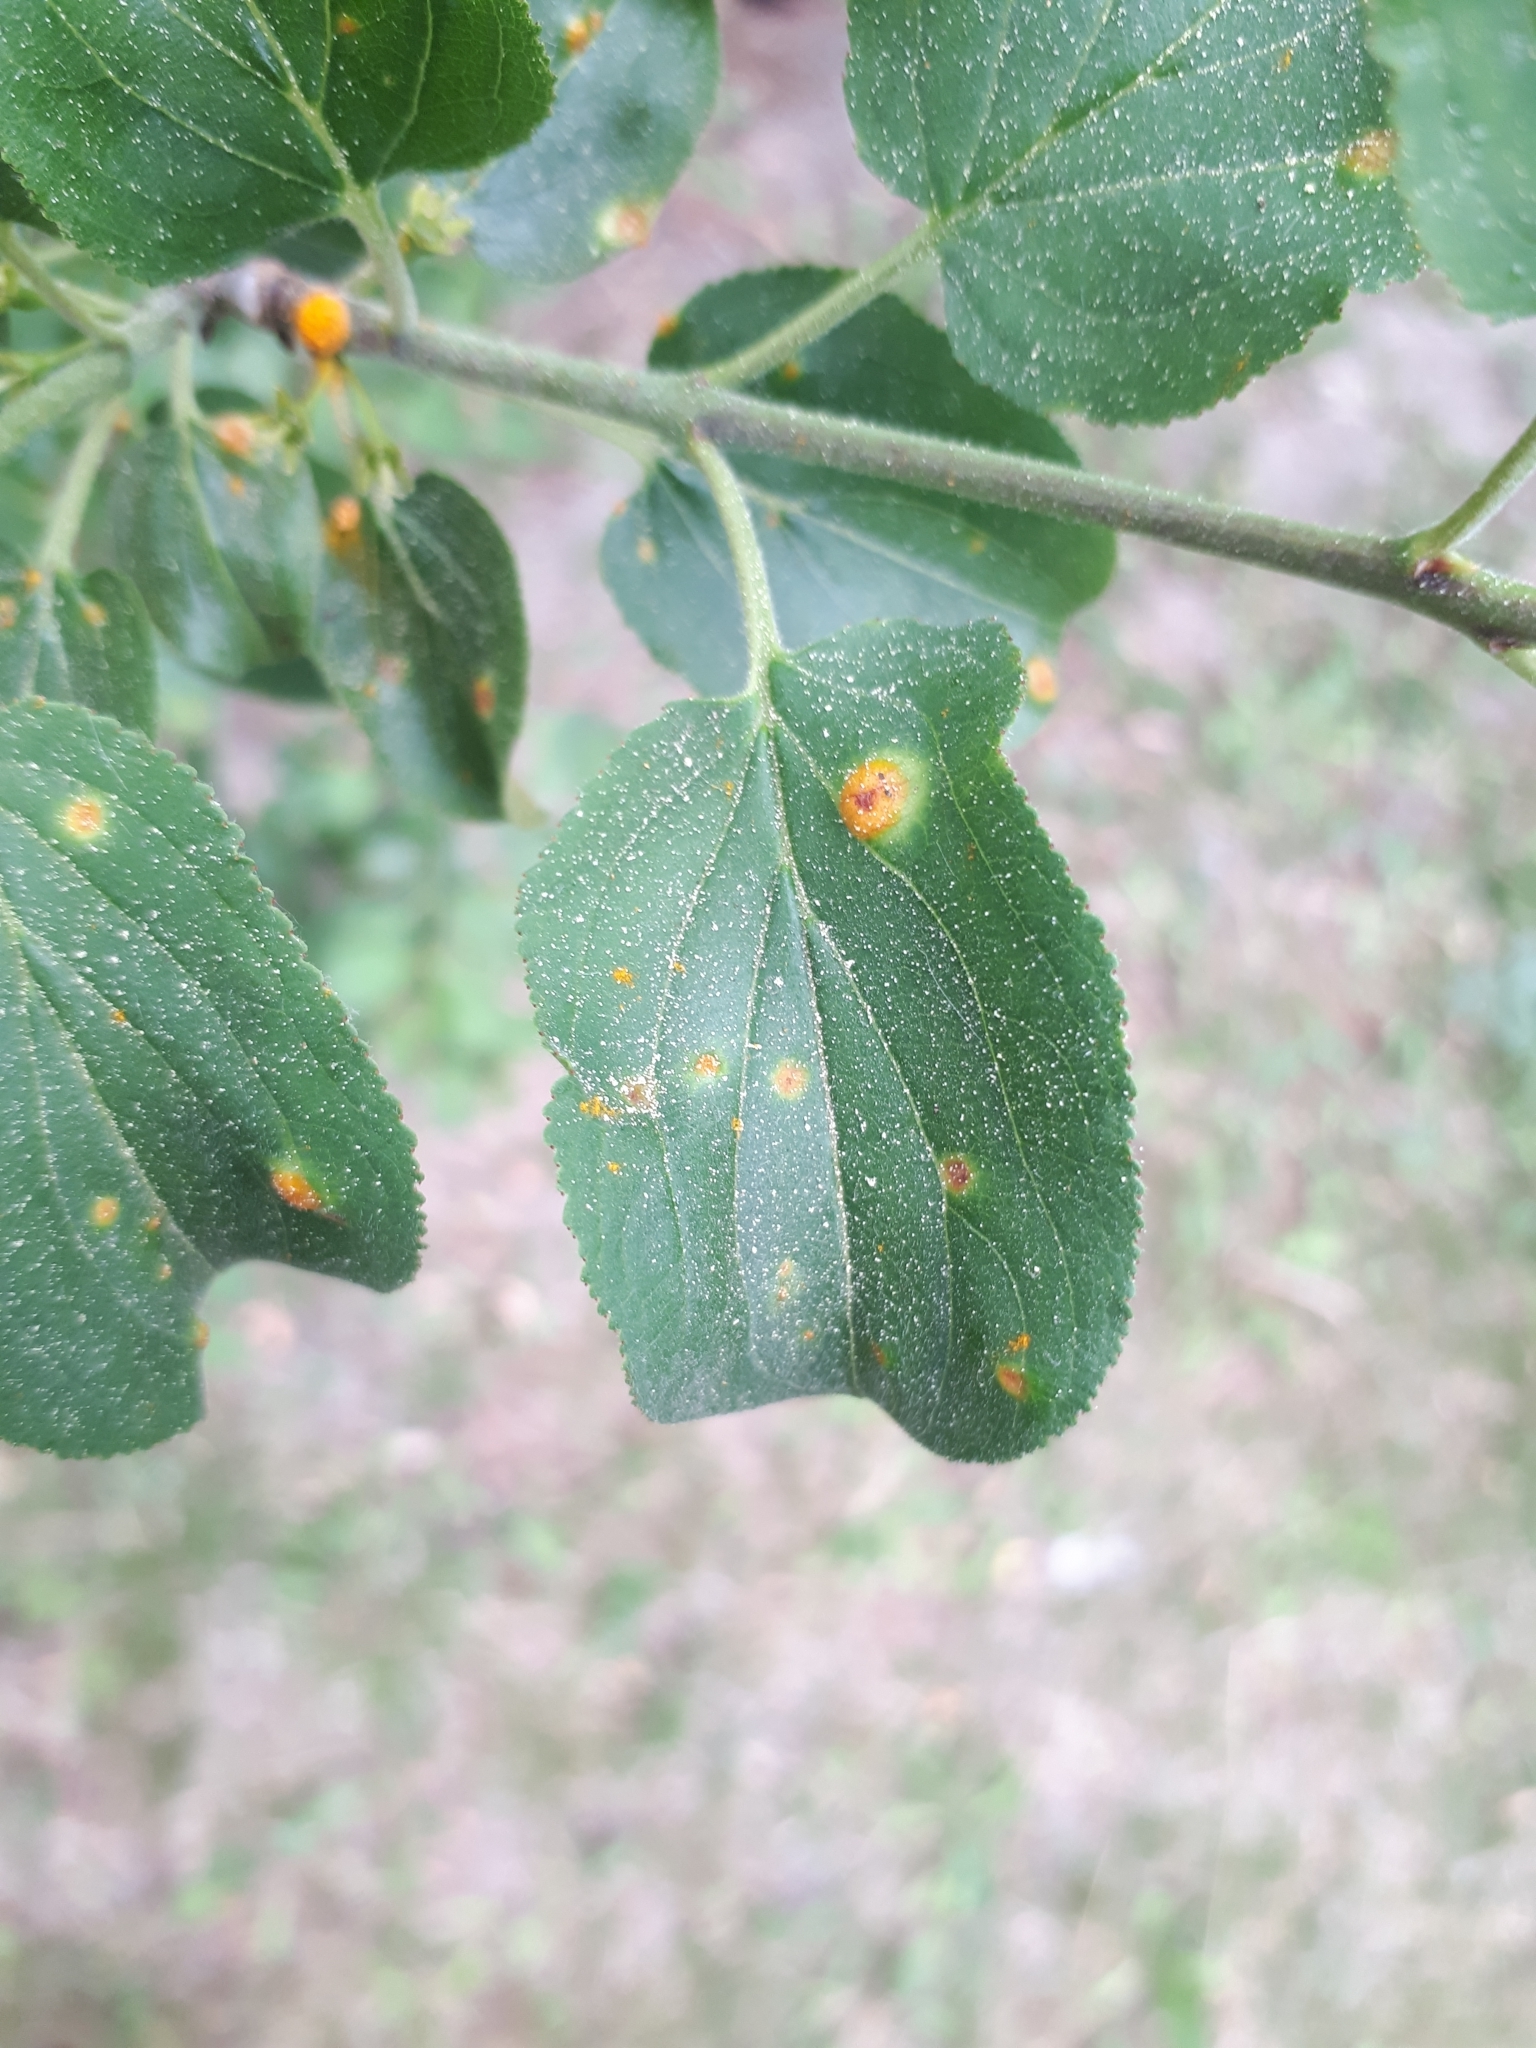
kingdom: Plantae
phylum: Tracheophyta
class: Magnoliopsida
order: Rosales
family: Rhamnaceae
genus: Rhamnus
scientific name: Rhamnus cathartica
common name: Common buckthorn
